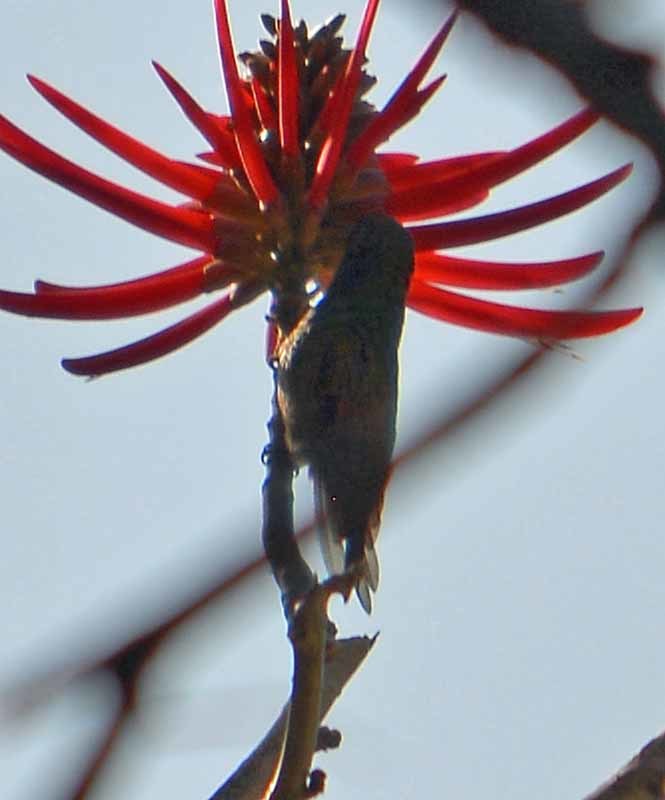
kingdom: Animalia
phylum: Chordata
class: Aves
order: Apodiformes
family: Trochilidae
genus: Saucerottia
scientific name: Saucerottia beryllina
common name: Berylline hummingbird
